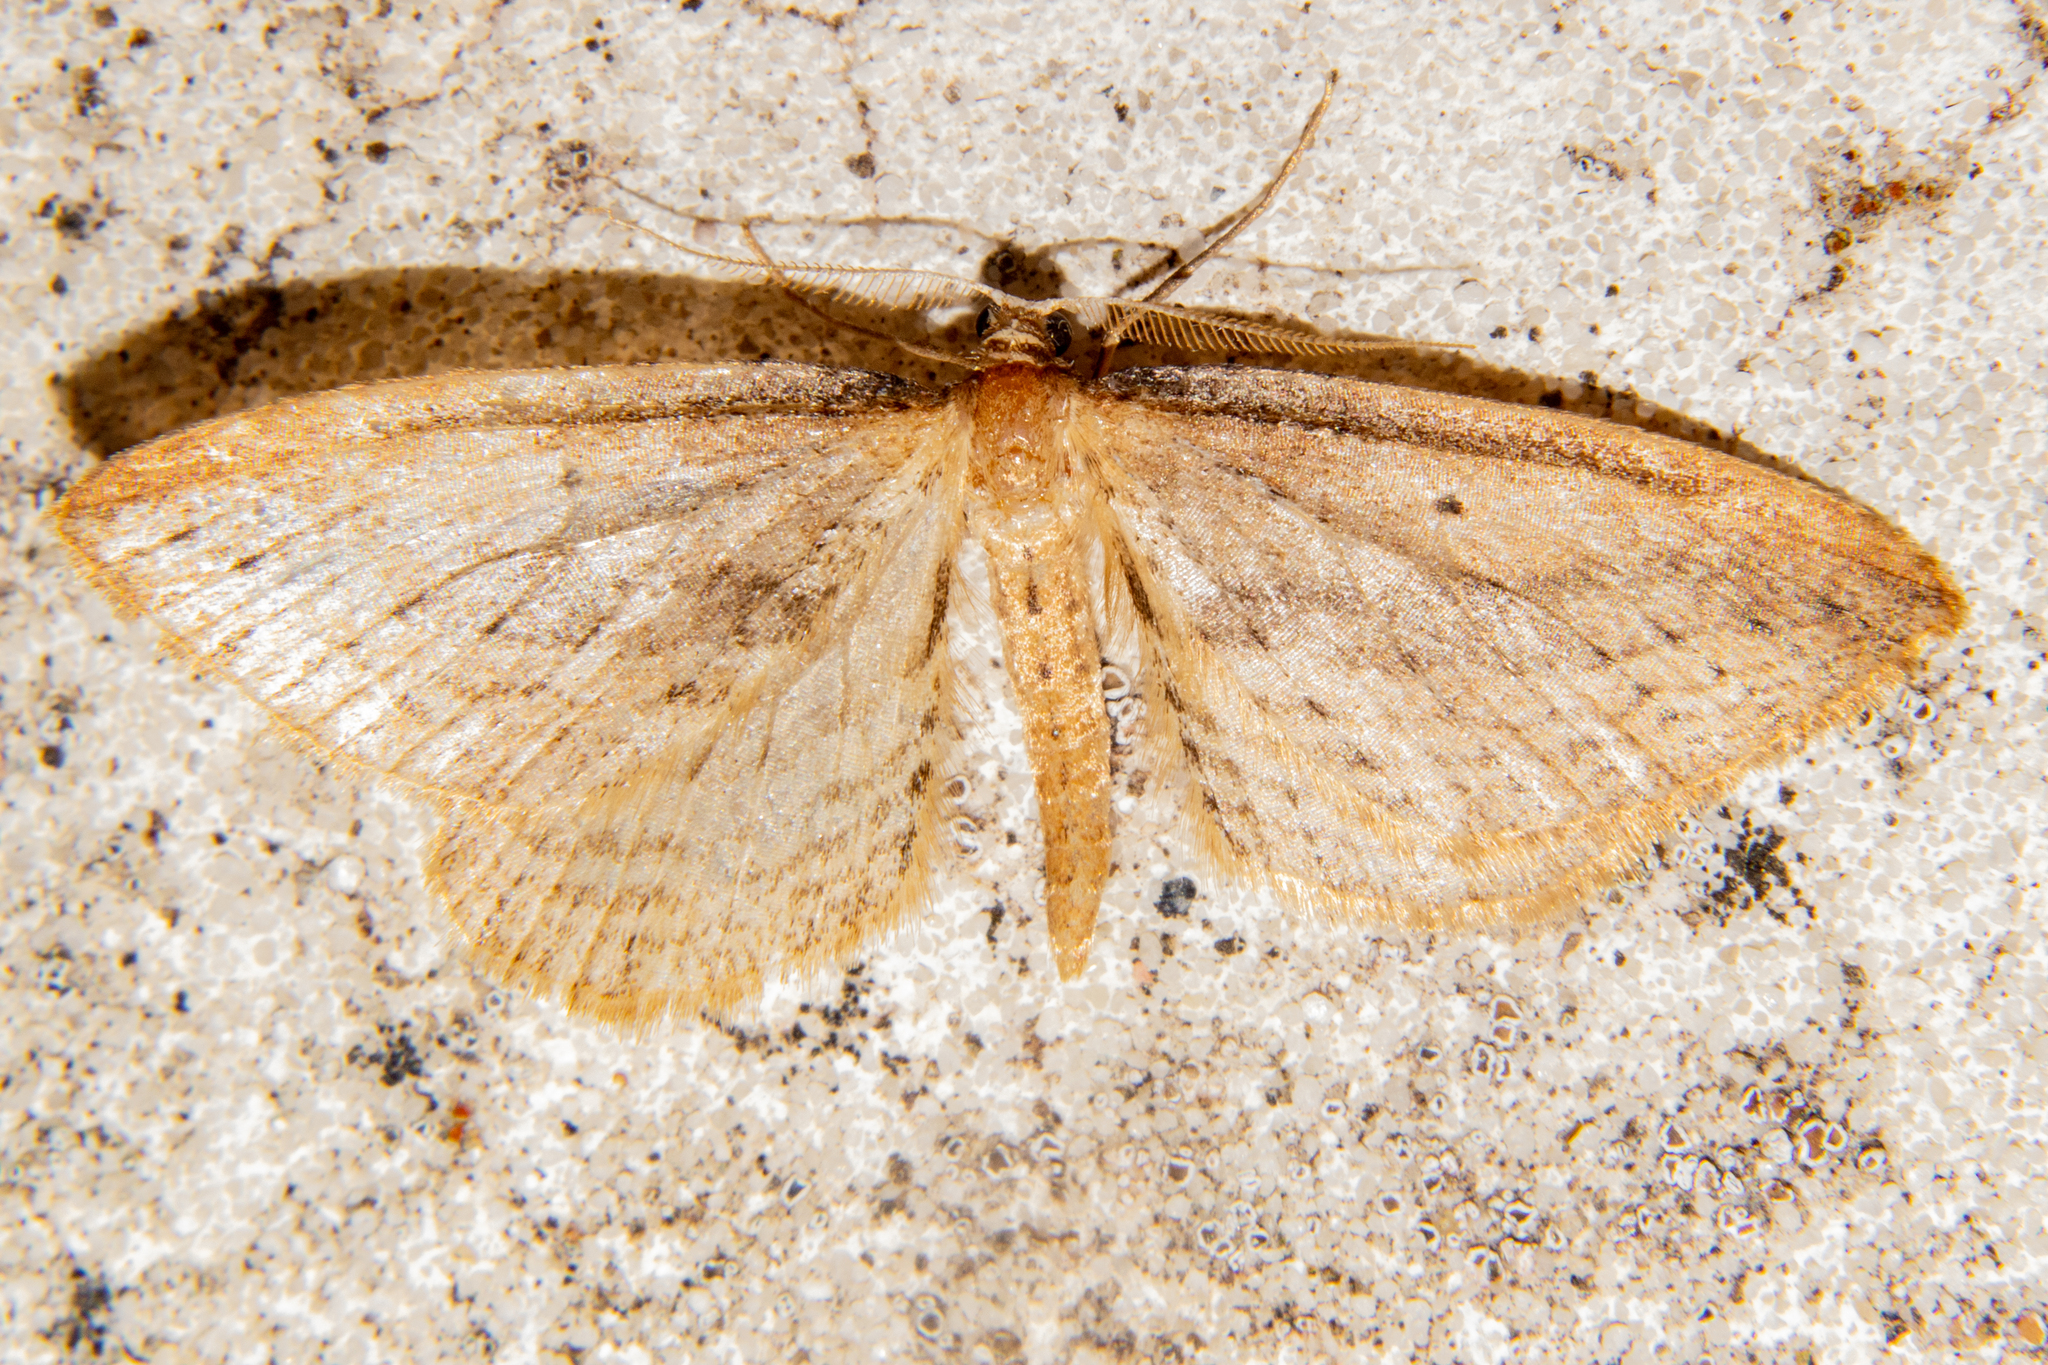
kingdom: Animalia
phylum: Arthropoda
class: Insecta
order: Lepidoptera
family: Geometridae
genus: Epiphryne
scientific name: Epiphryne charidema
